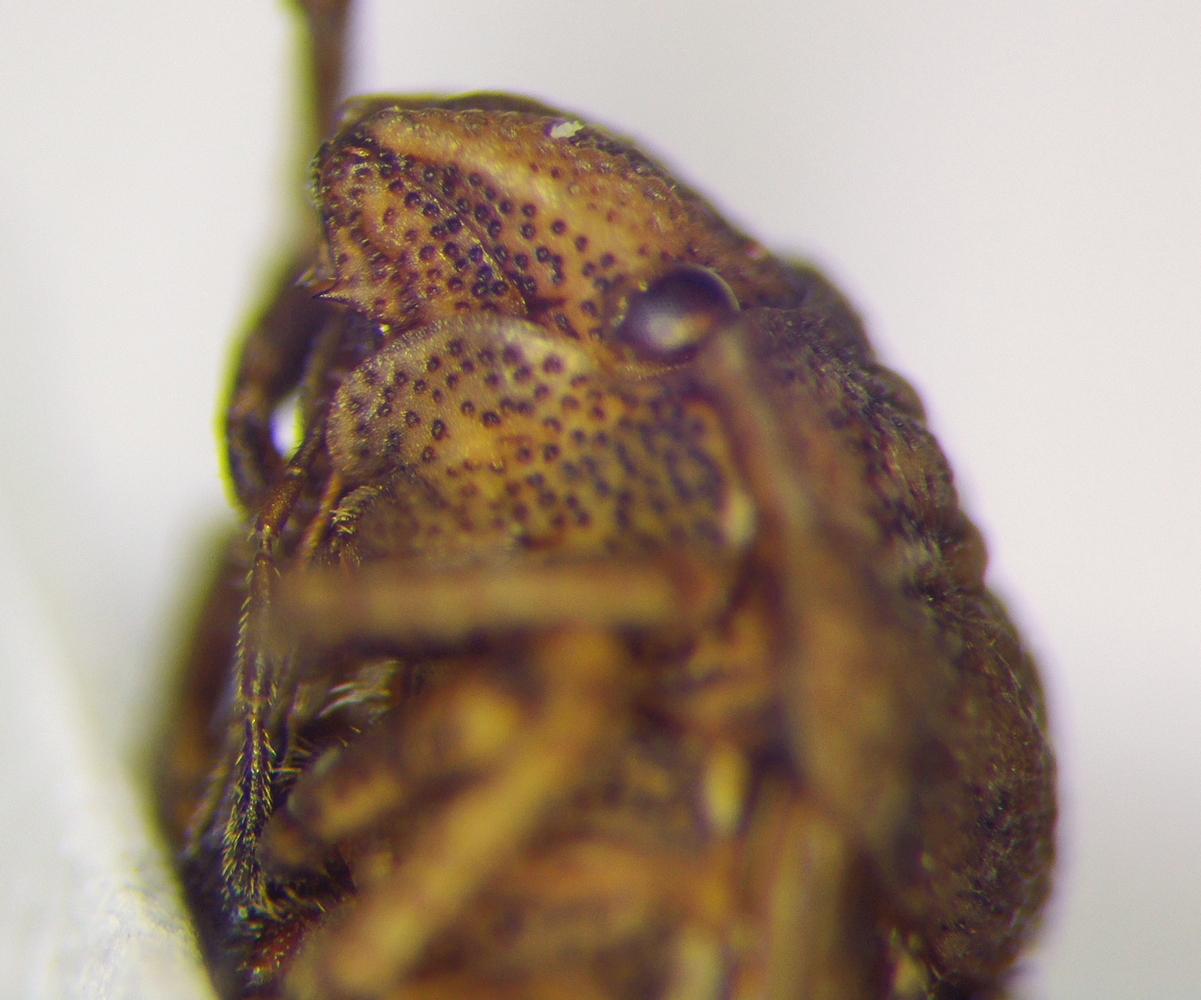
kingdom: Animalia
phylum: Arthropoda
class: Insecta
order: Hemiptera
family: Scutelleridae
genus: Psacasta
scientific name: Psacasta neglecta
